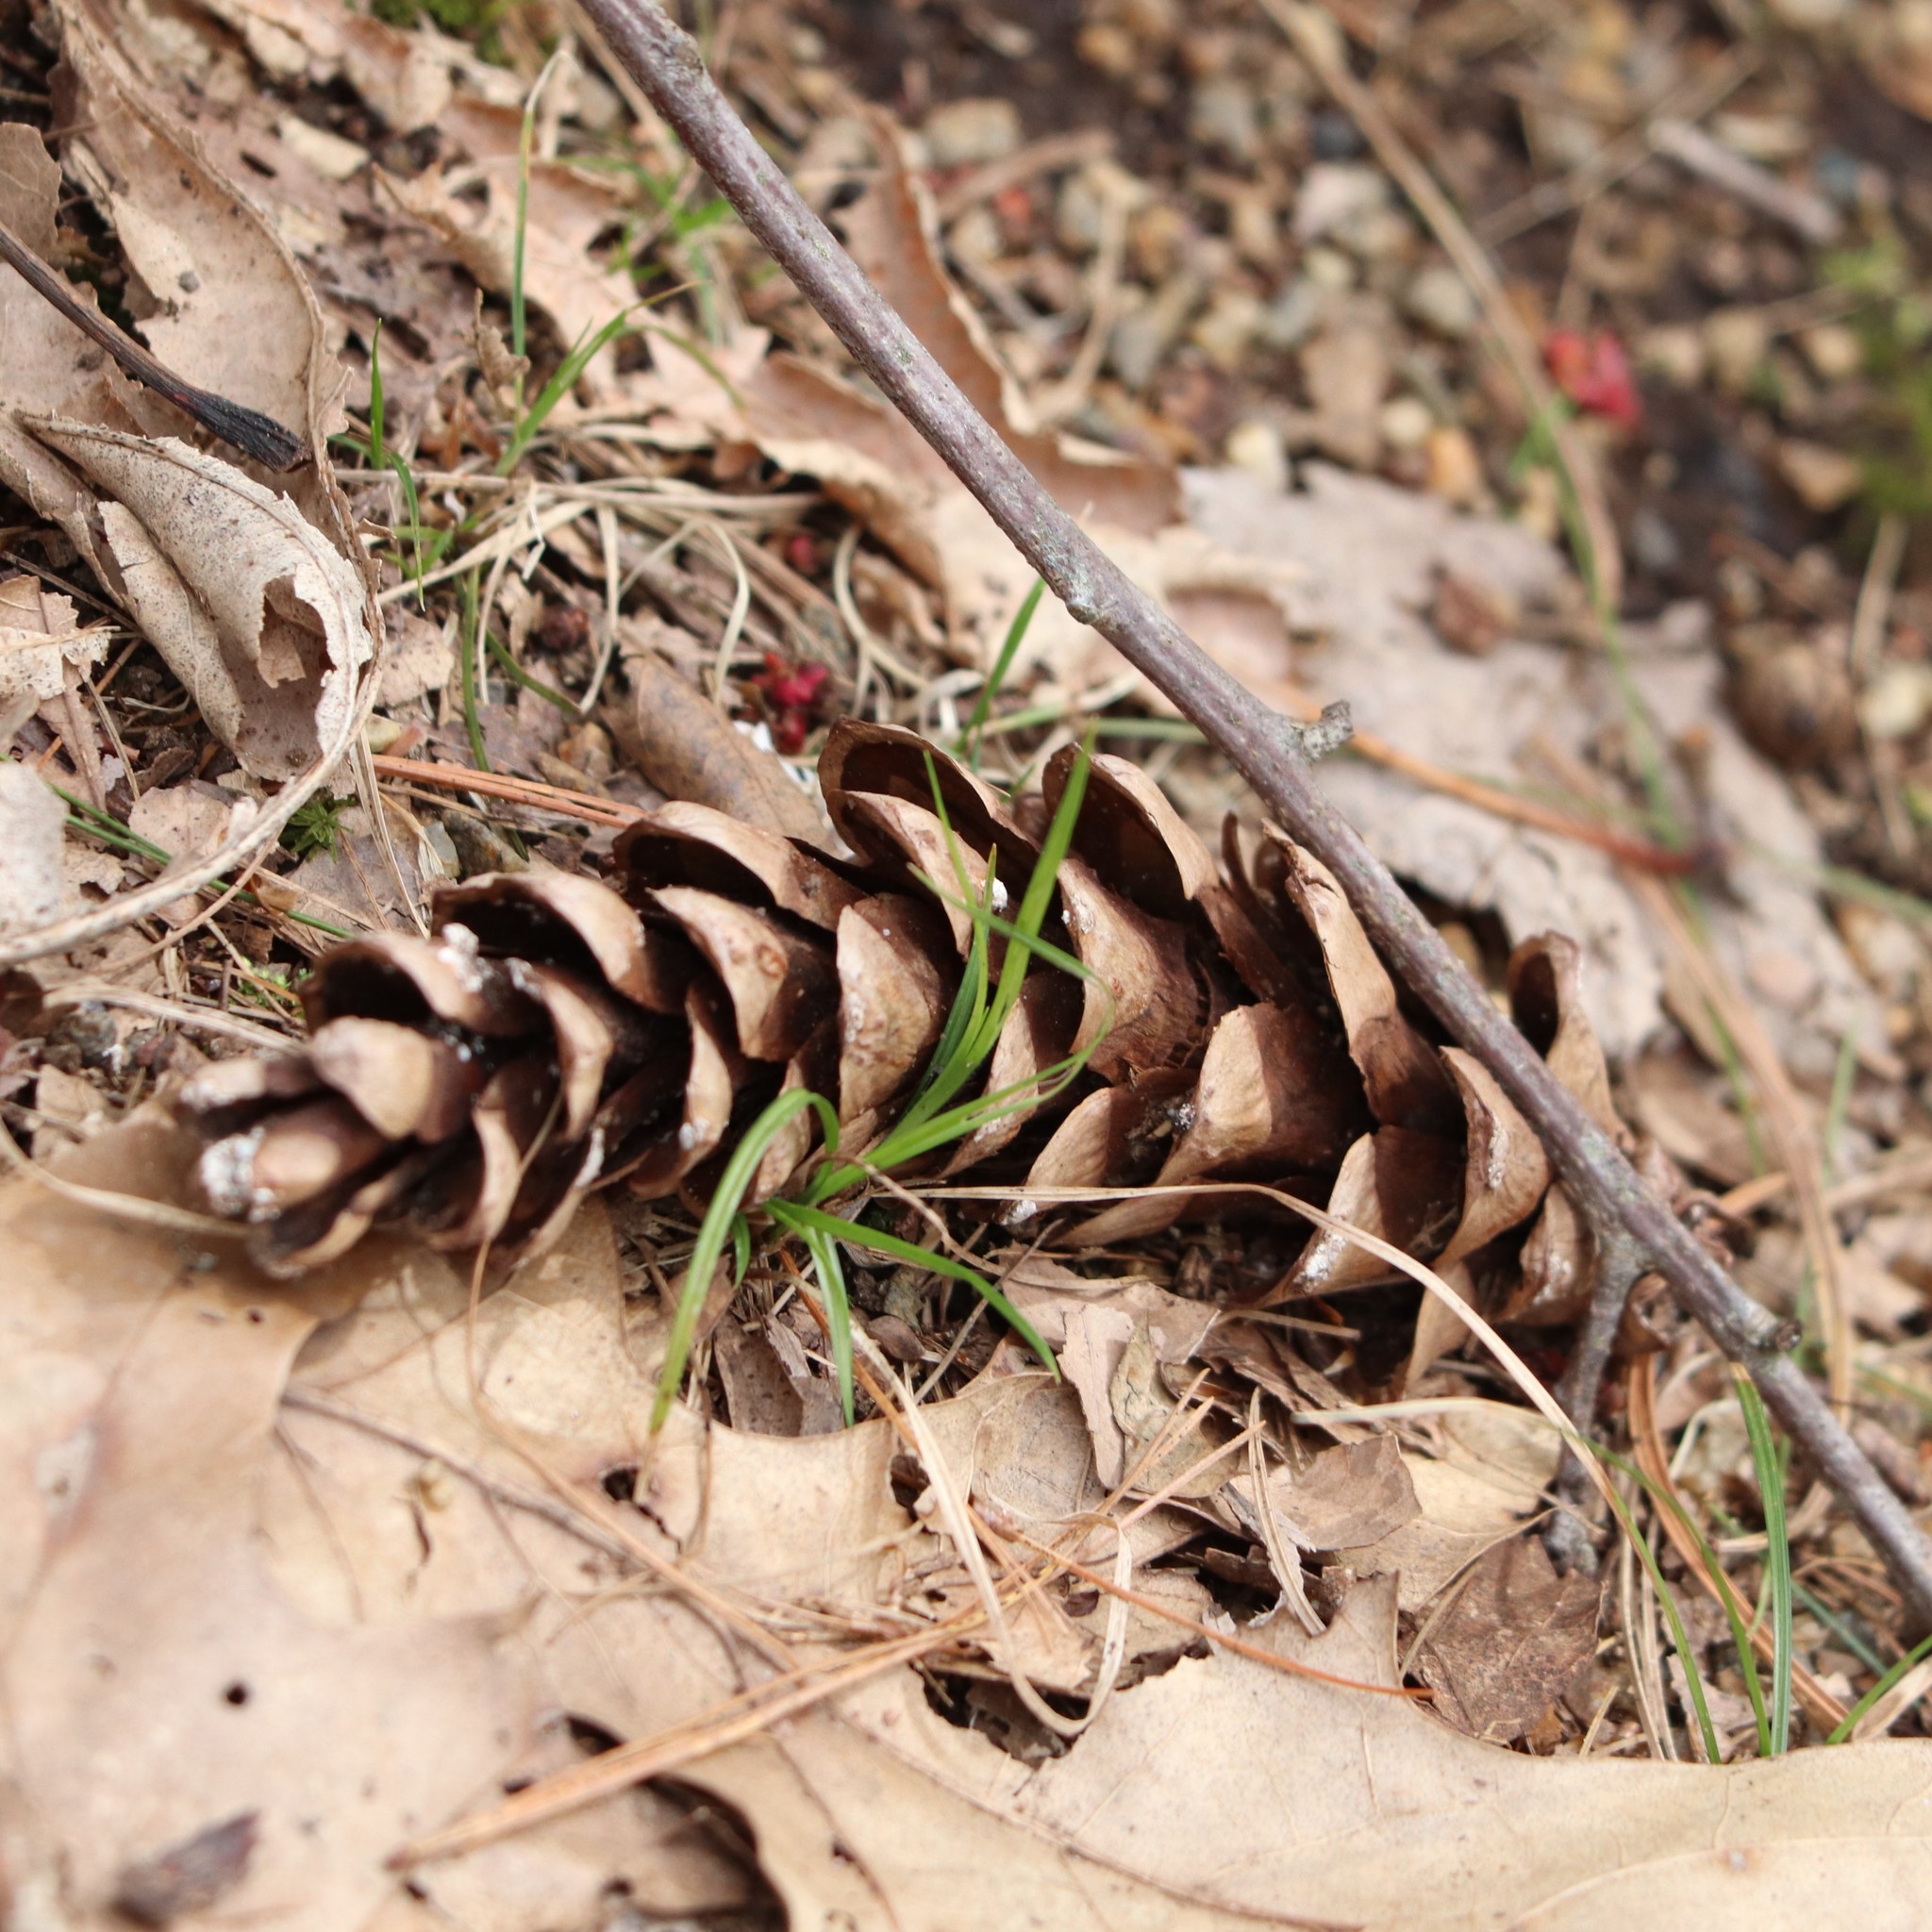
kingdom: Plantae
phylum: Tracheophyta
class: Pinopsida
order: Pinales
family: Pinaceae
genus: Pinus
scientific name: Pinus strobus
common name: Weymouth pine
